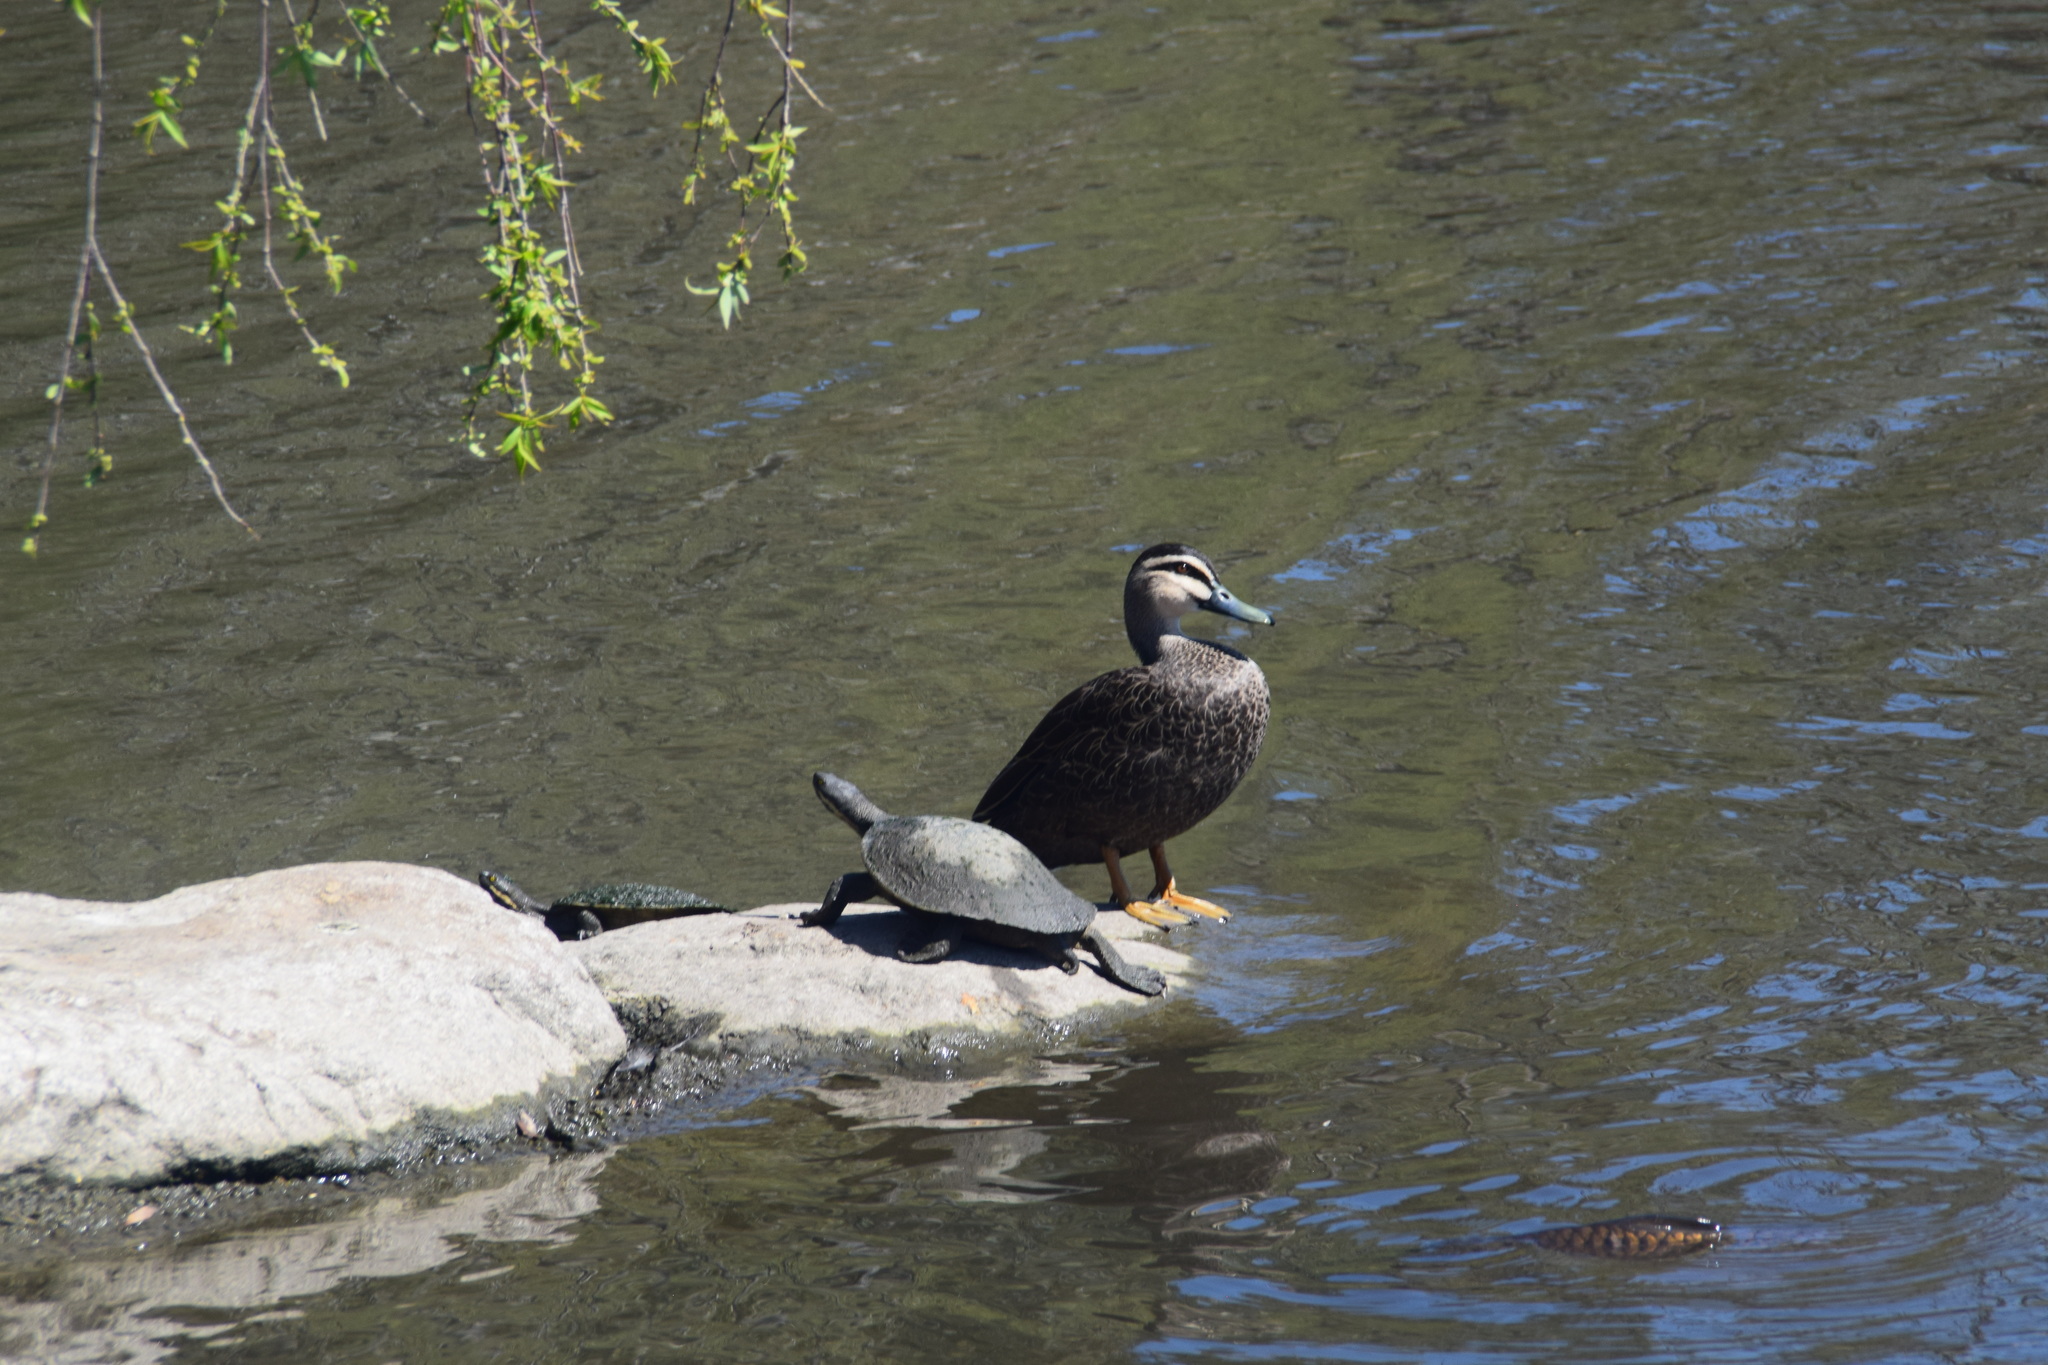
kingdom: Animalia
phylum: Chordata
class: Aves
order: Anseriformes
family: Anatidae
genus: Anas
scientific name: Anas
